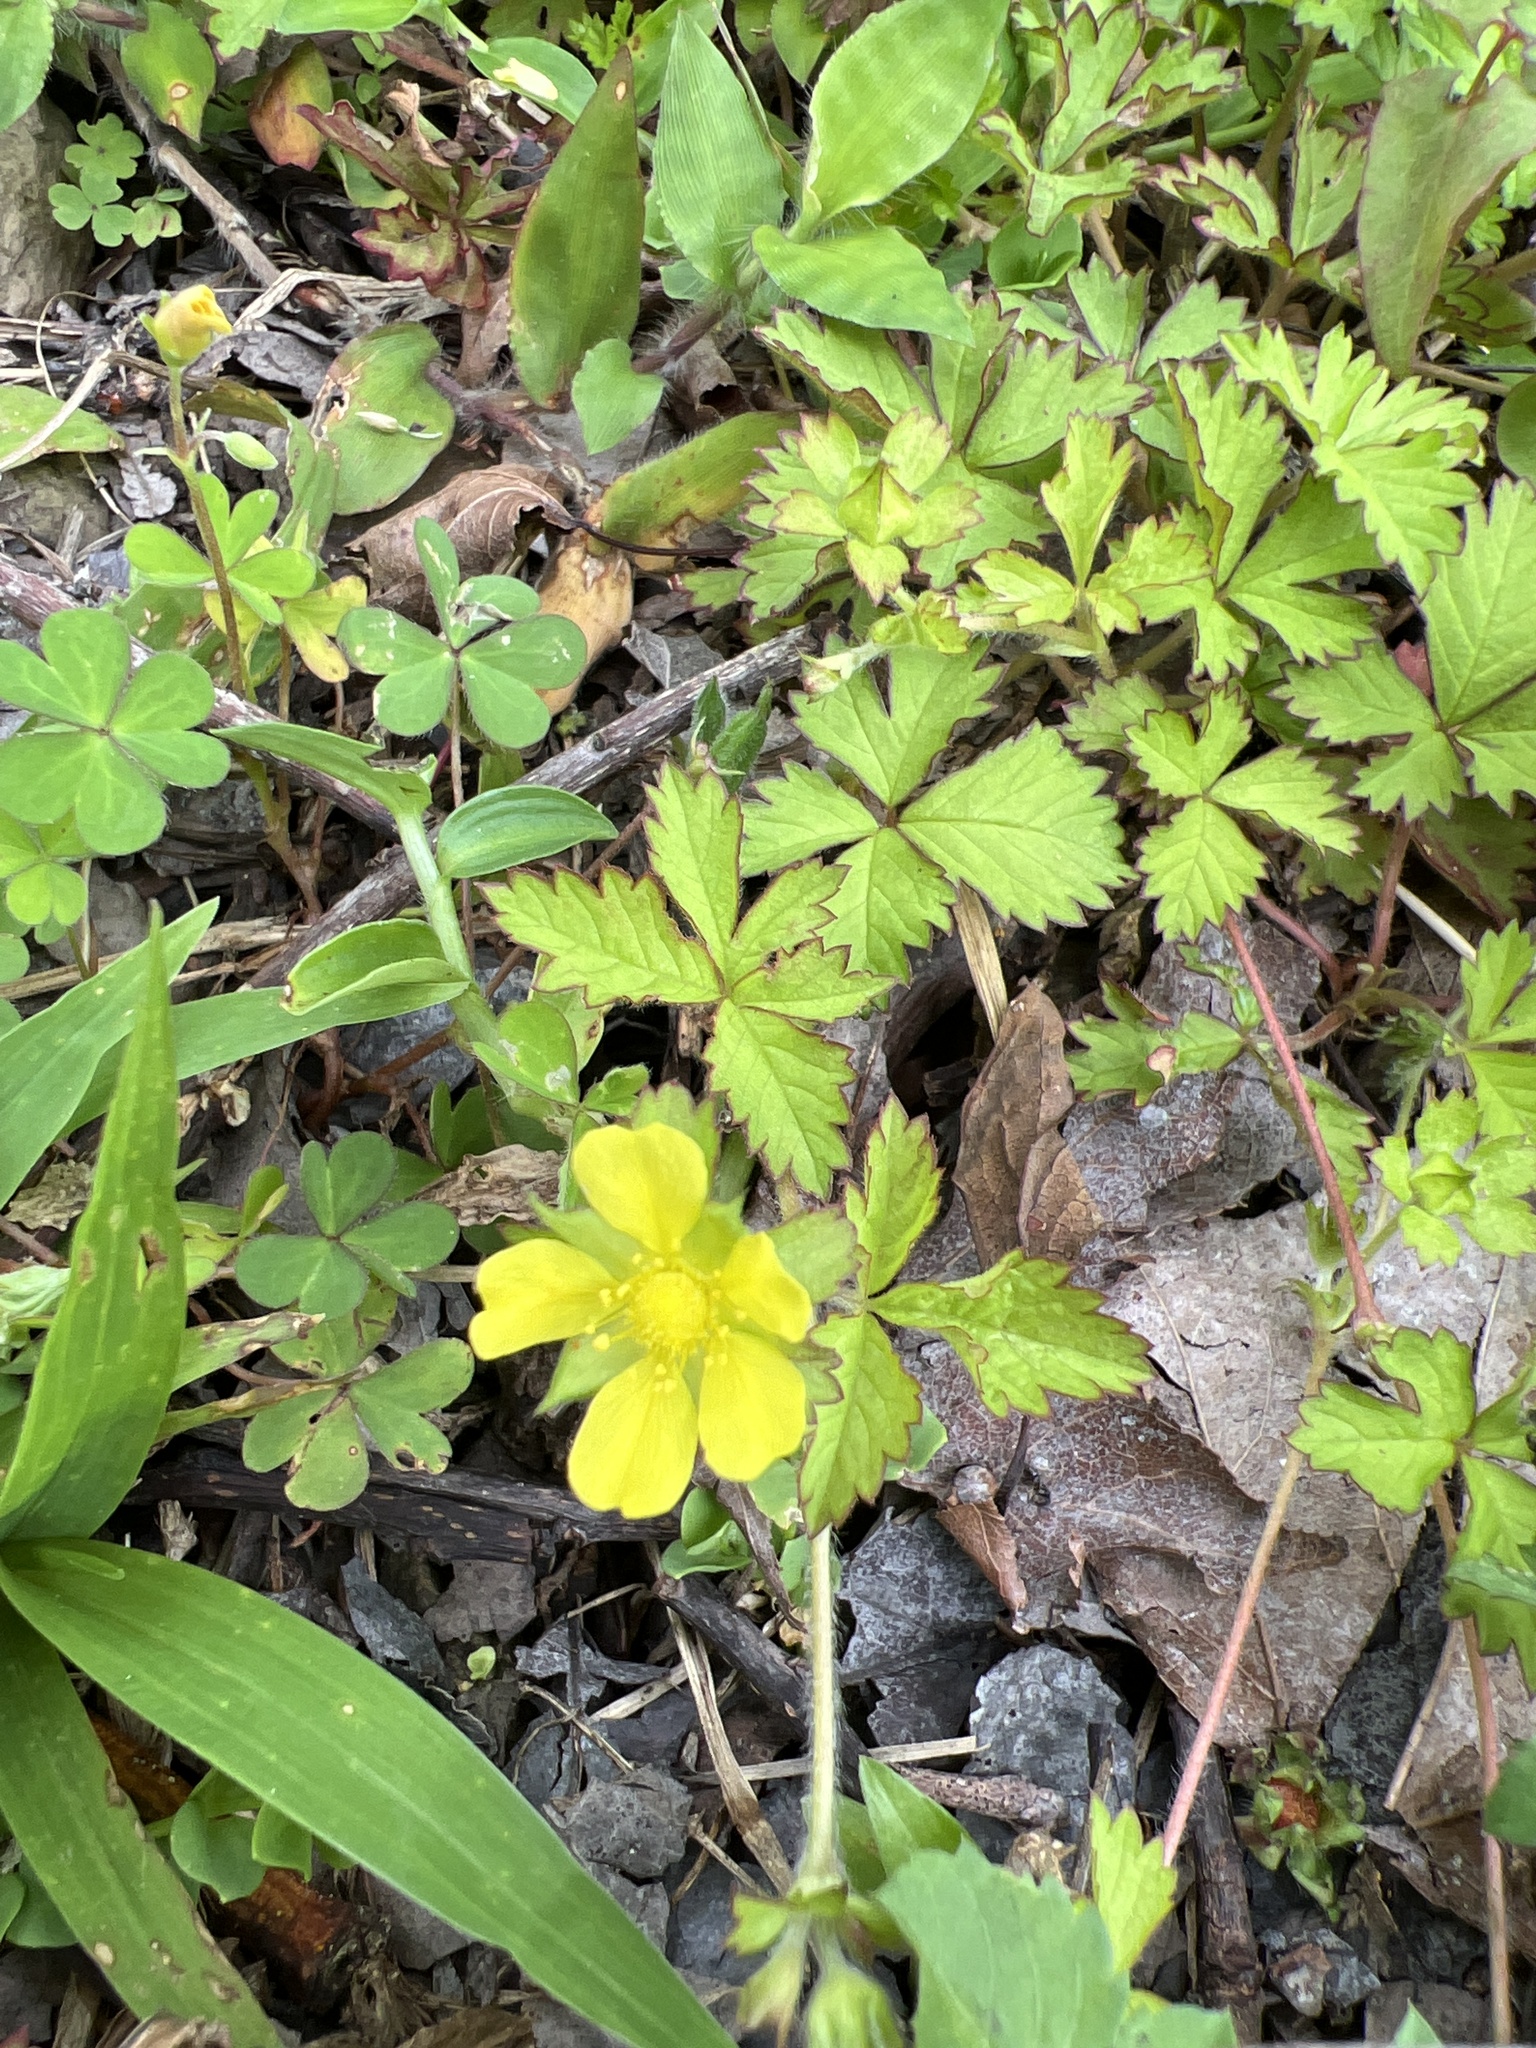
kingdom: Plantae
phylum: Tracheophyta
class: Magnoliopsida
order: Rosales
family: Rosaceae
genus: Potentilla
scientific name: Potentilla wallichiana
